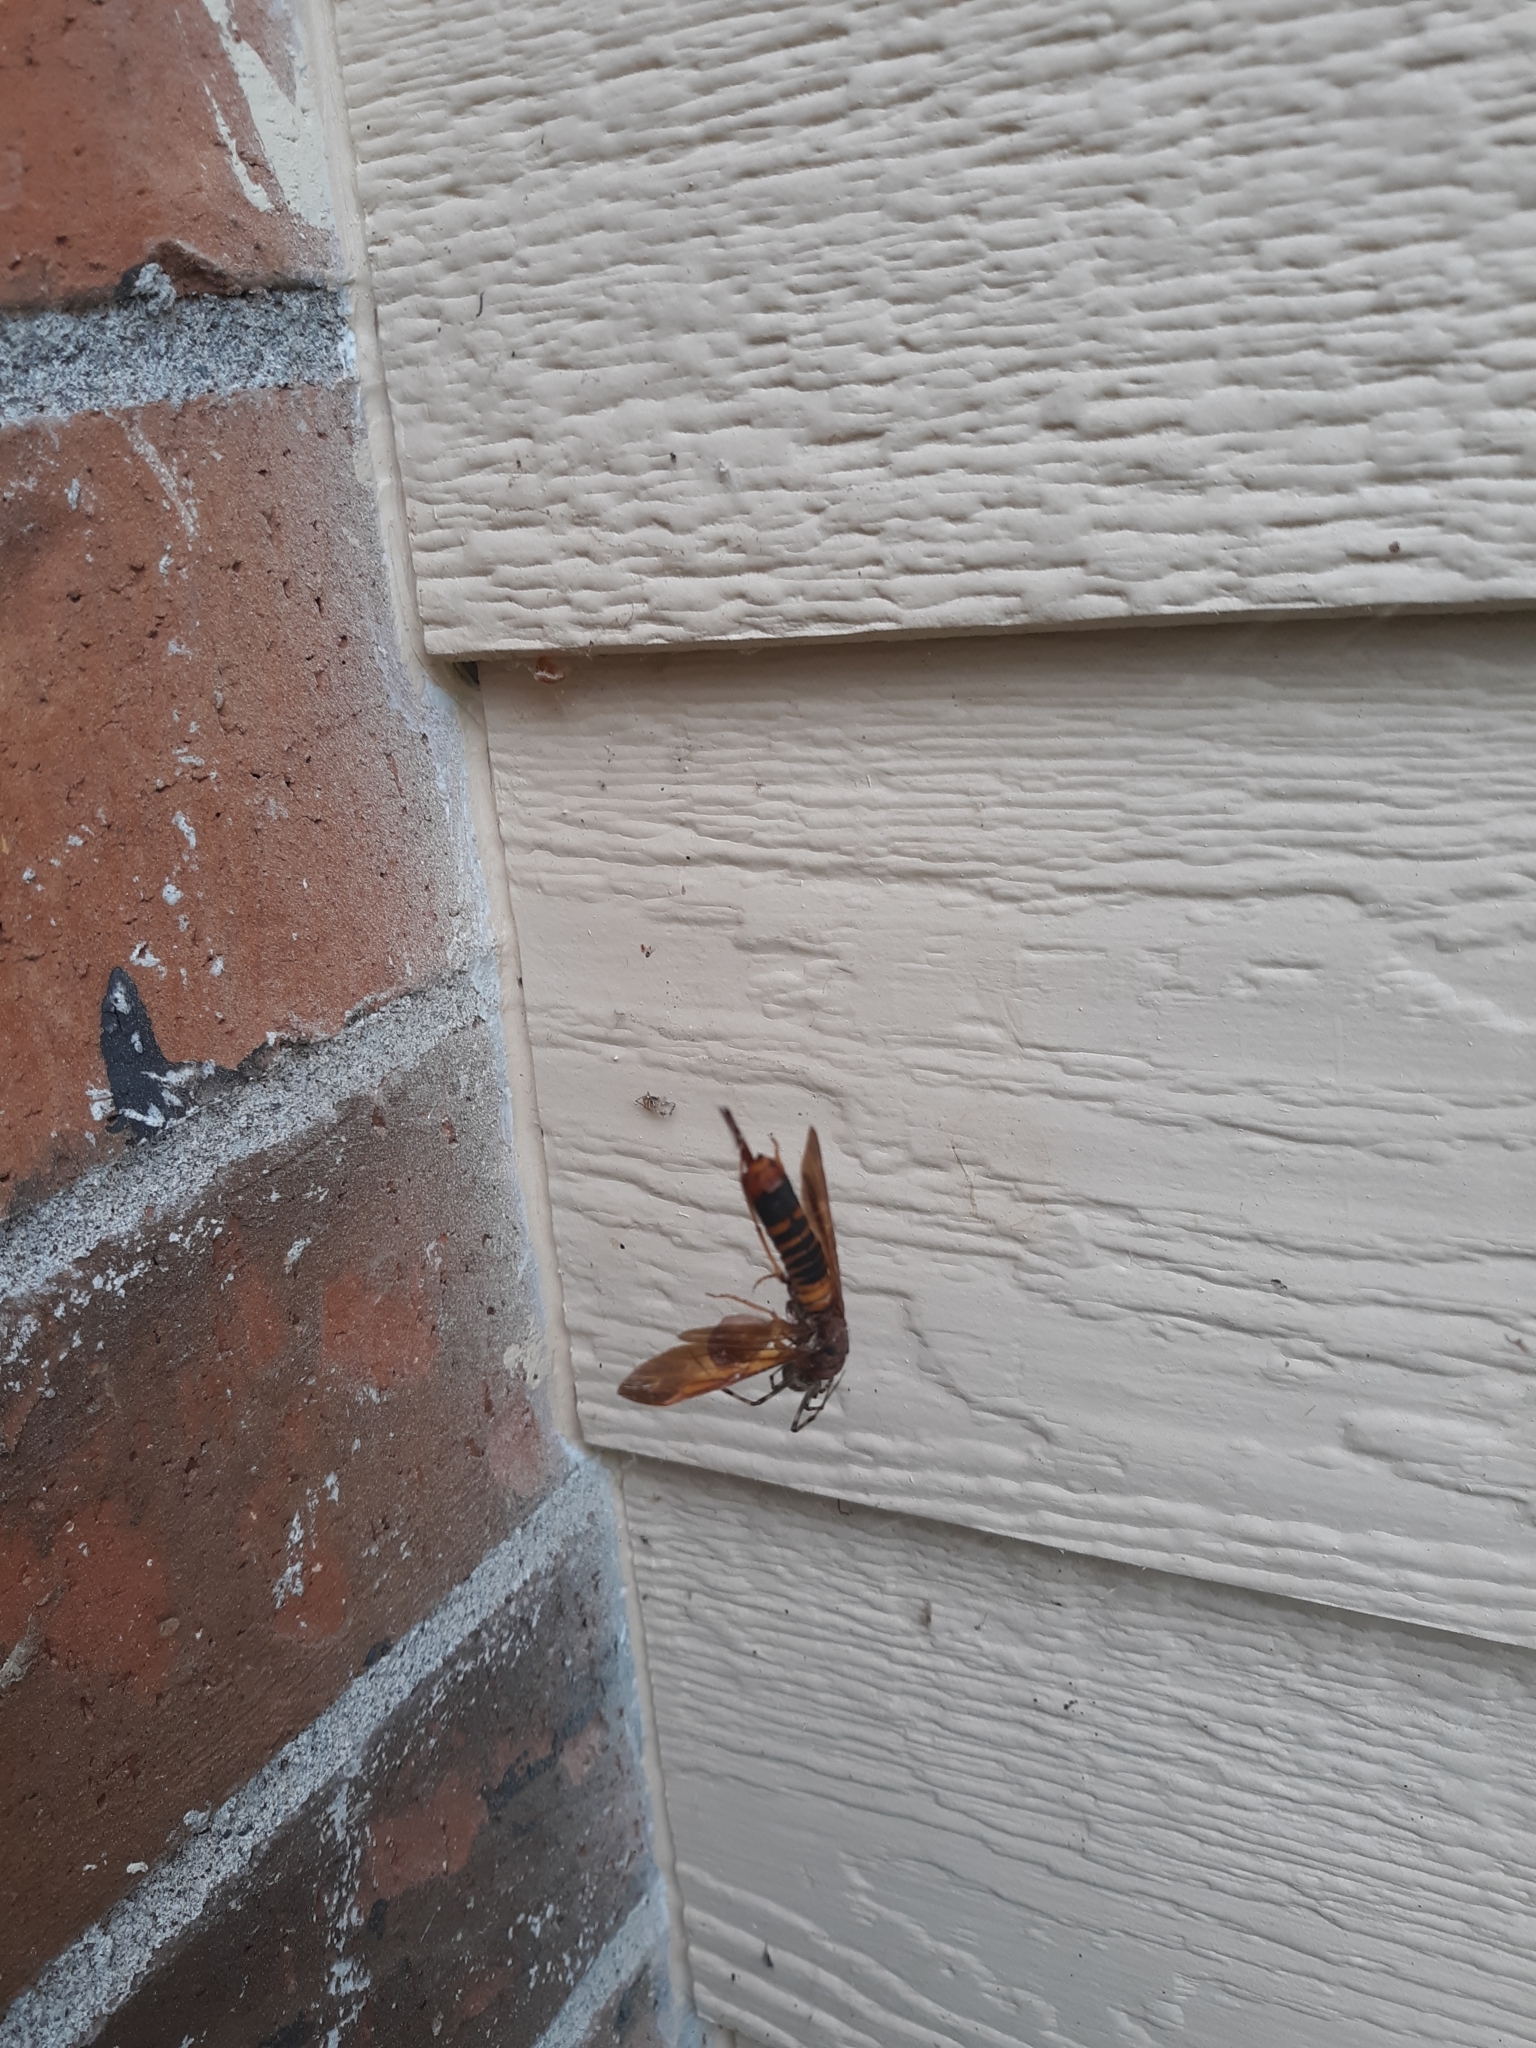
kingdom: Animalia
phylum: Arthropoda
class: Insecta
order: Hymenoptera
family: Siricidae
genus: Tremex
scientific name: Tremex columba
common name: Wasp
